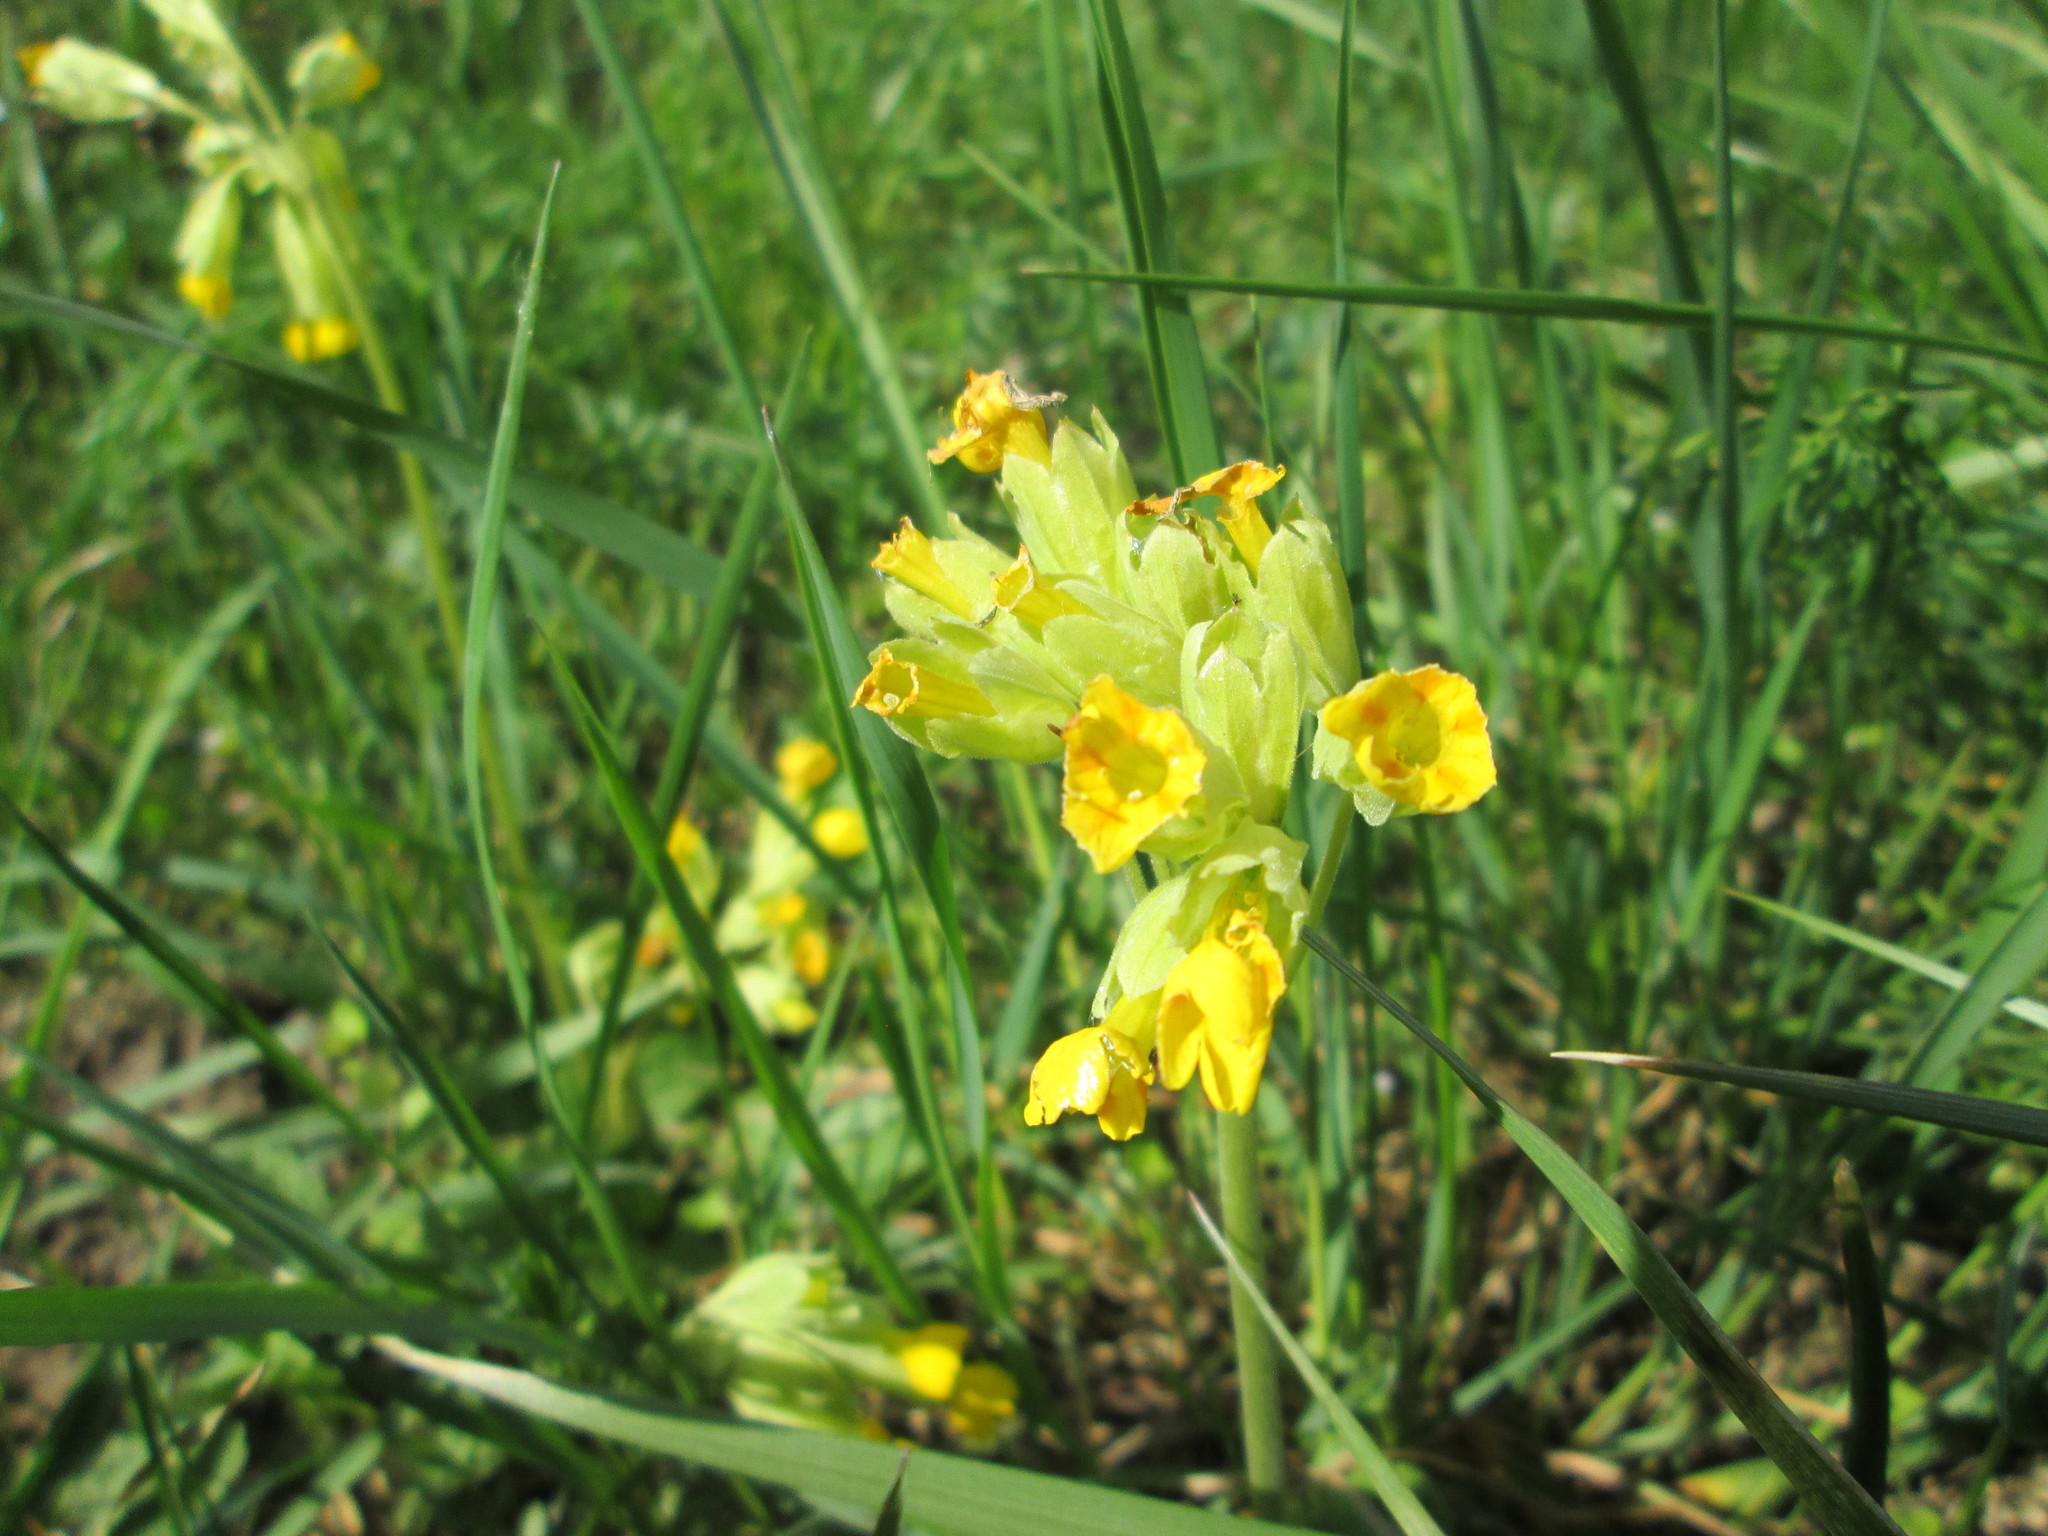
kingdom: Plantae
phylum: Tracheophyta
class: Magnoliopsida
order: Ericales
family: Primulaceae
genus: Primula
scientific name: Primula veris
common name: Cowslip
